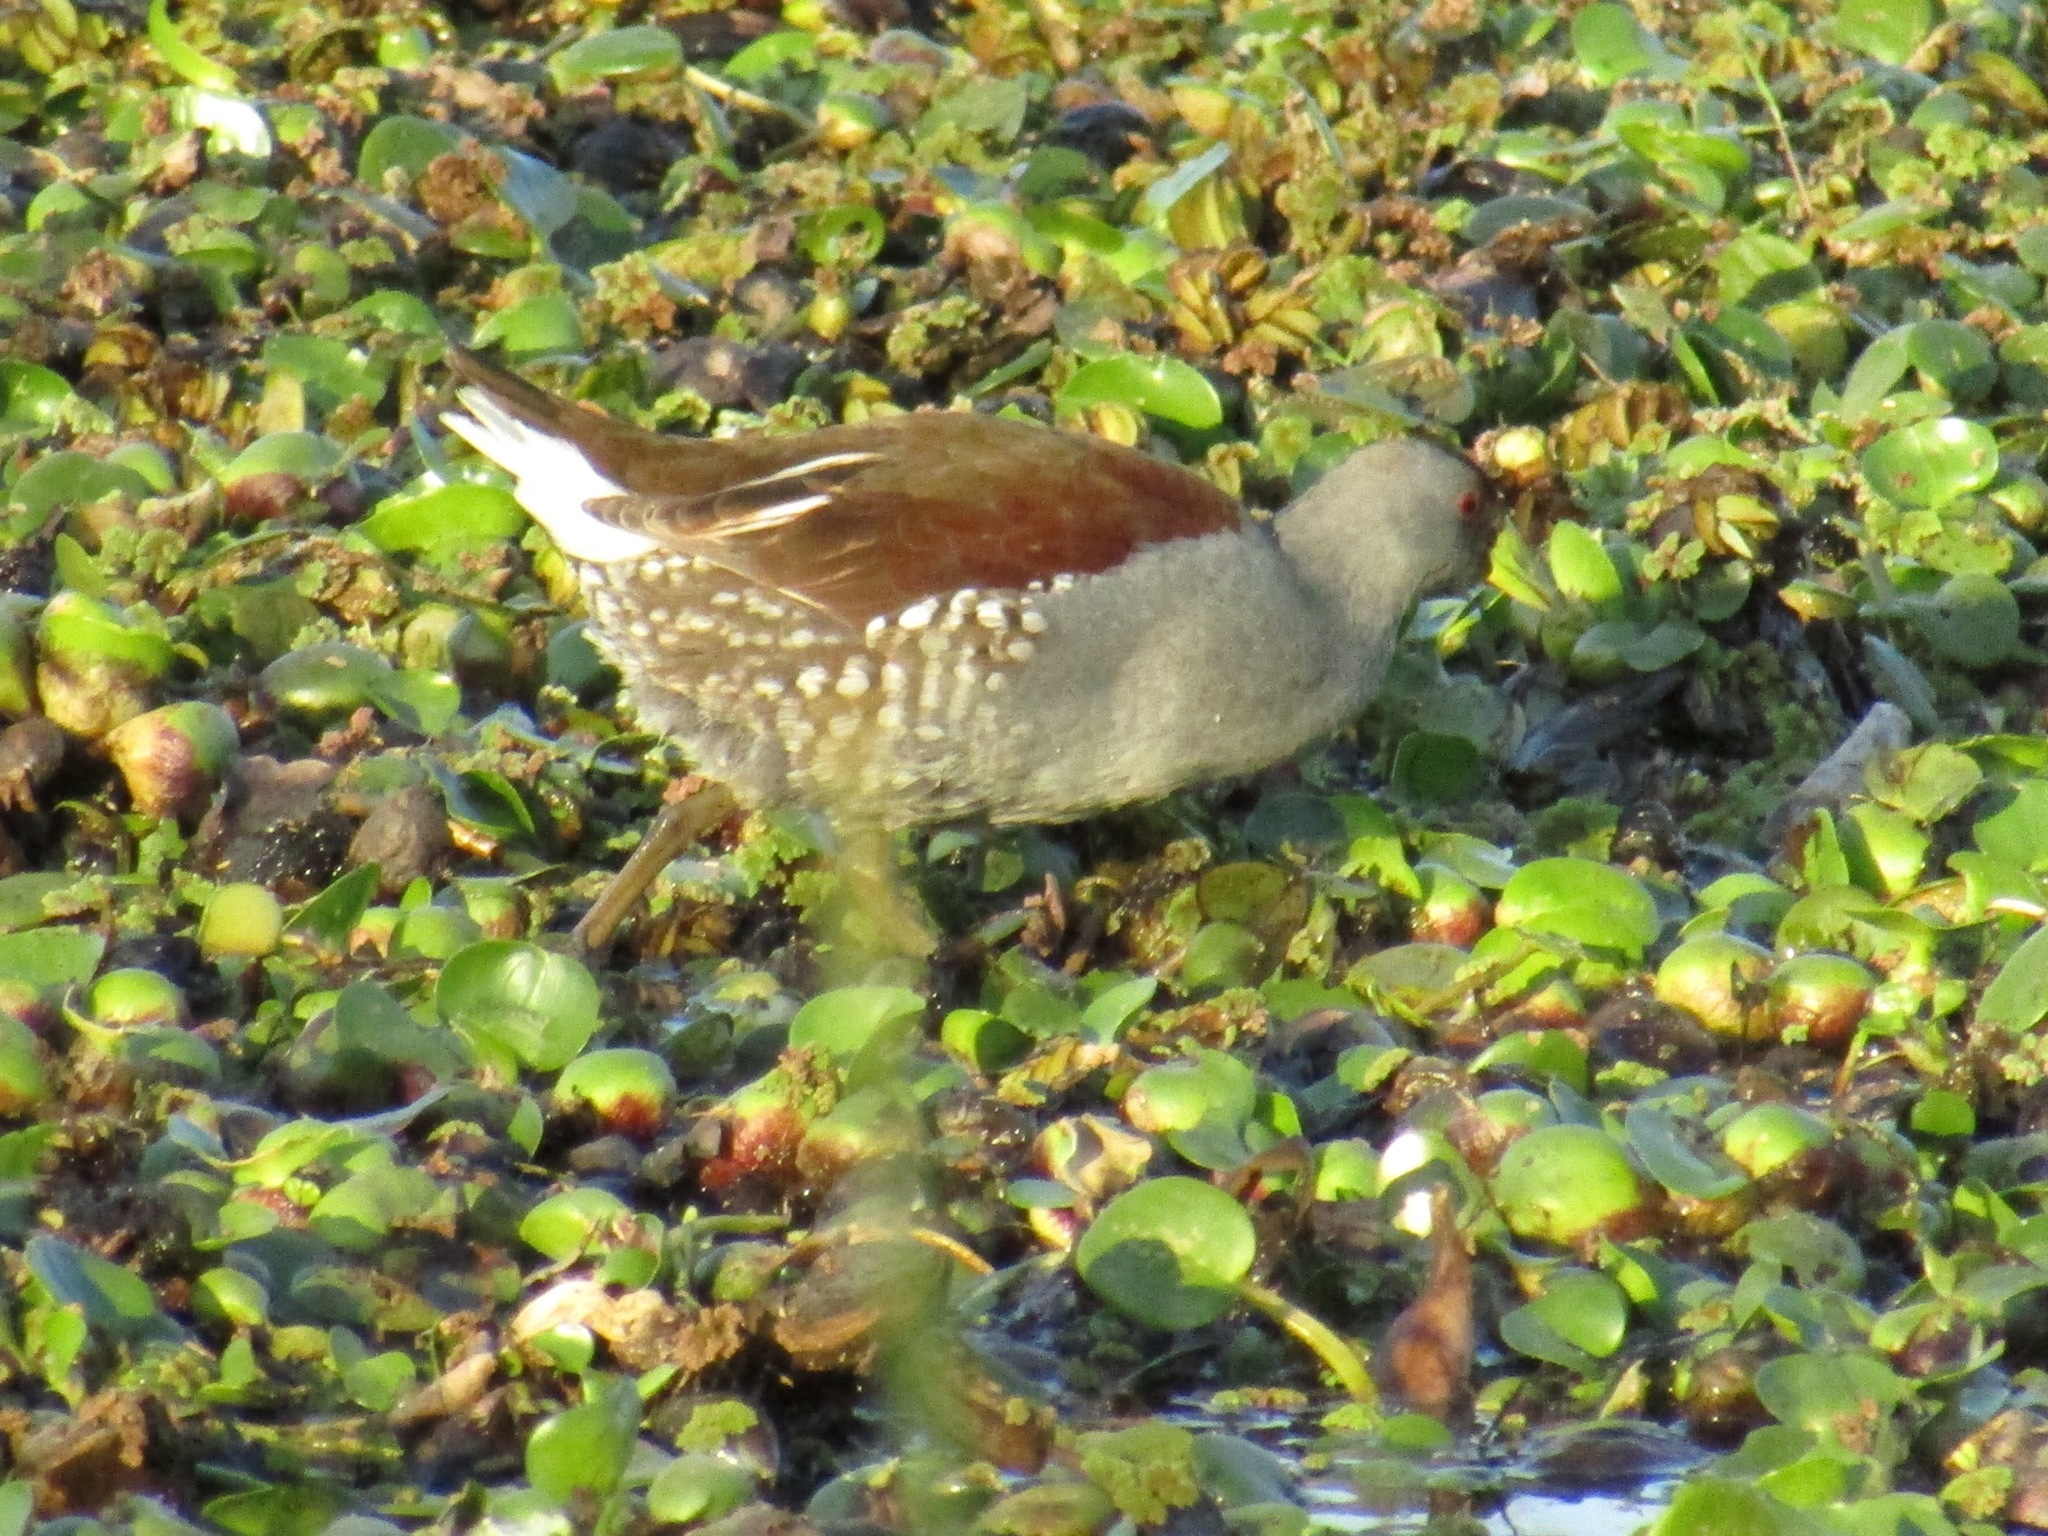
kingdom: Animalia
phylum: Chordata
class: Aves
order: Gruiformes
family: Rallidae
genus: Gallinula
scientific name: Gallinula melanops
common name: Spot-flanked gallinule
